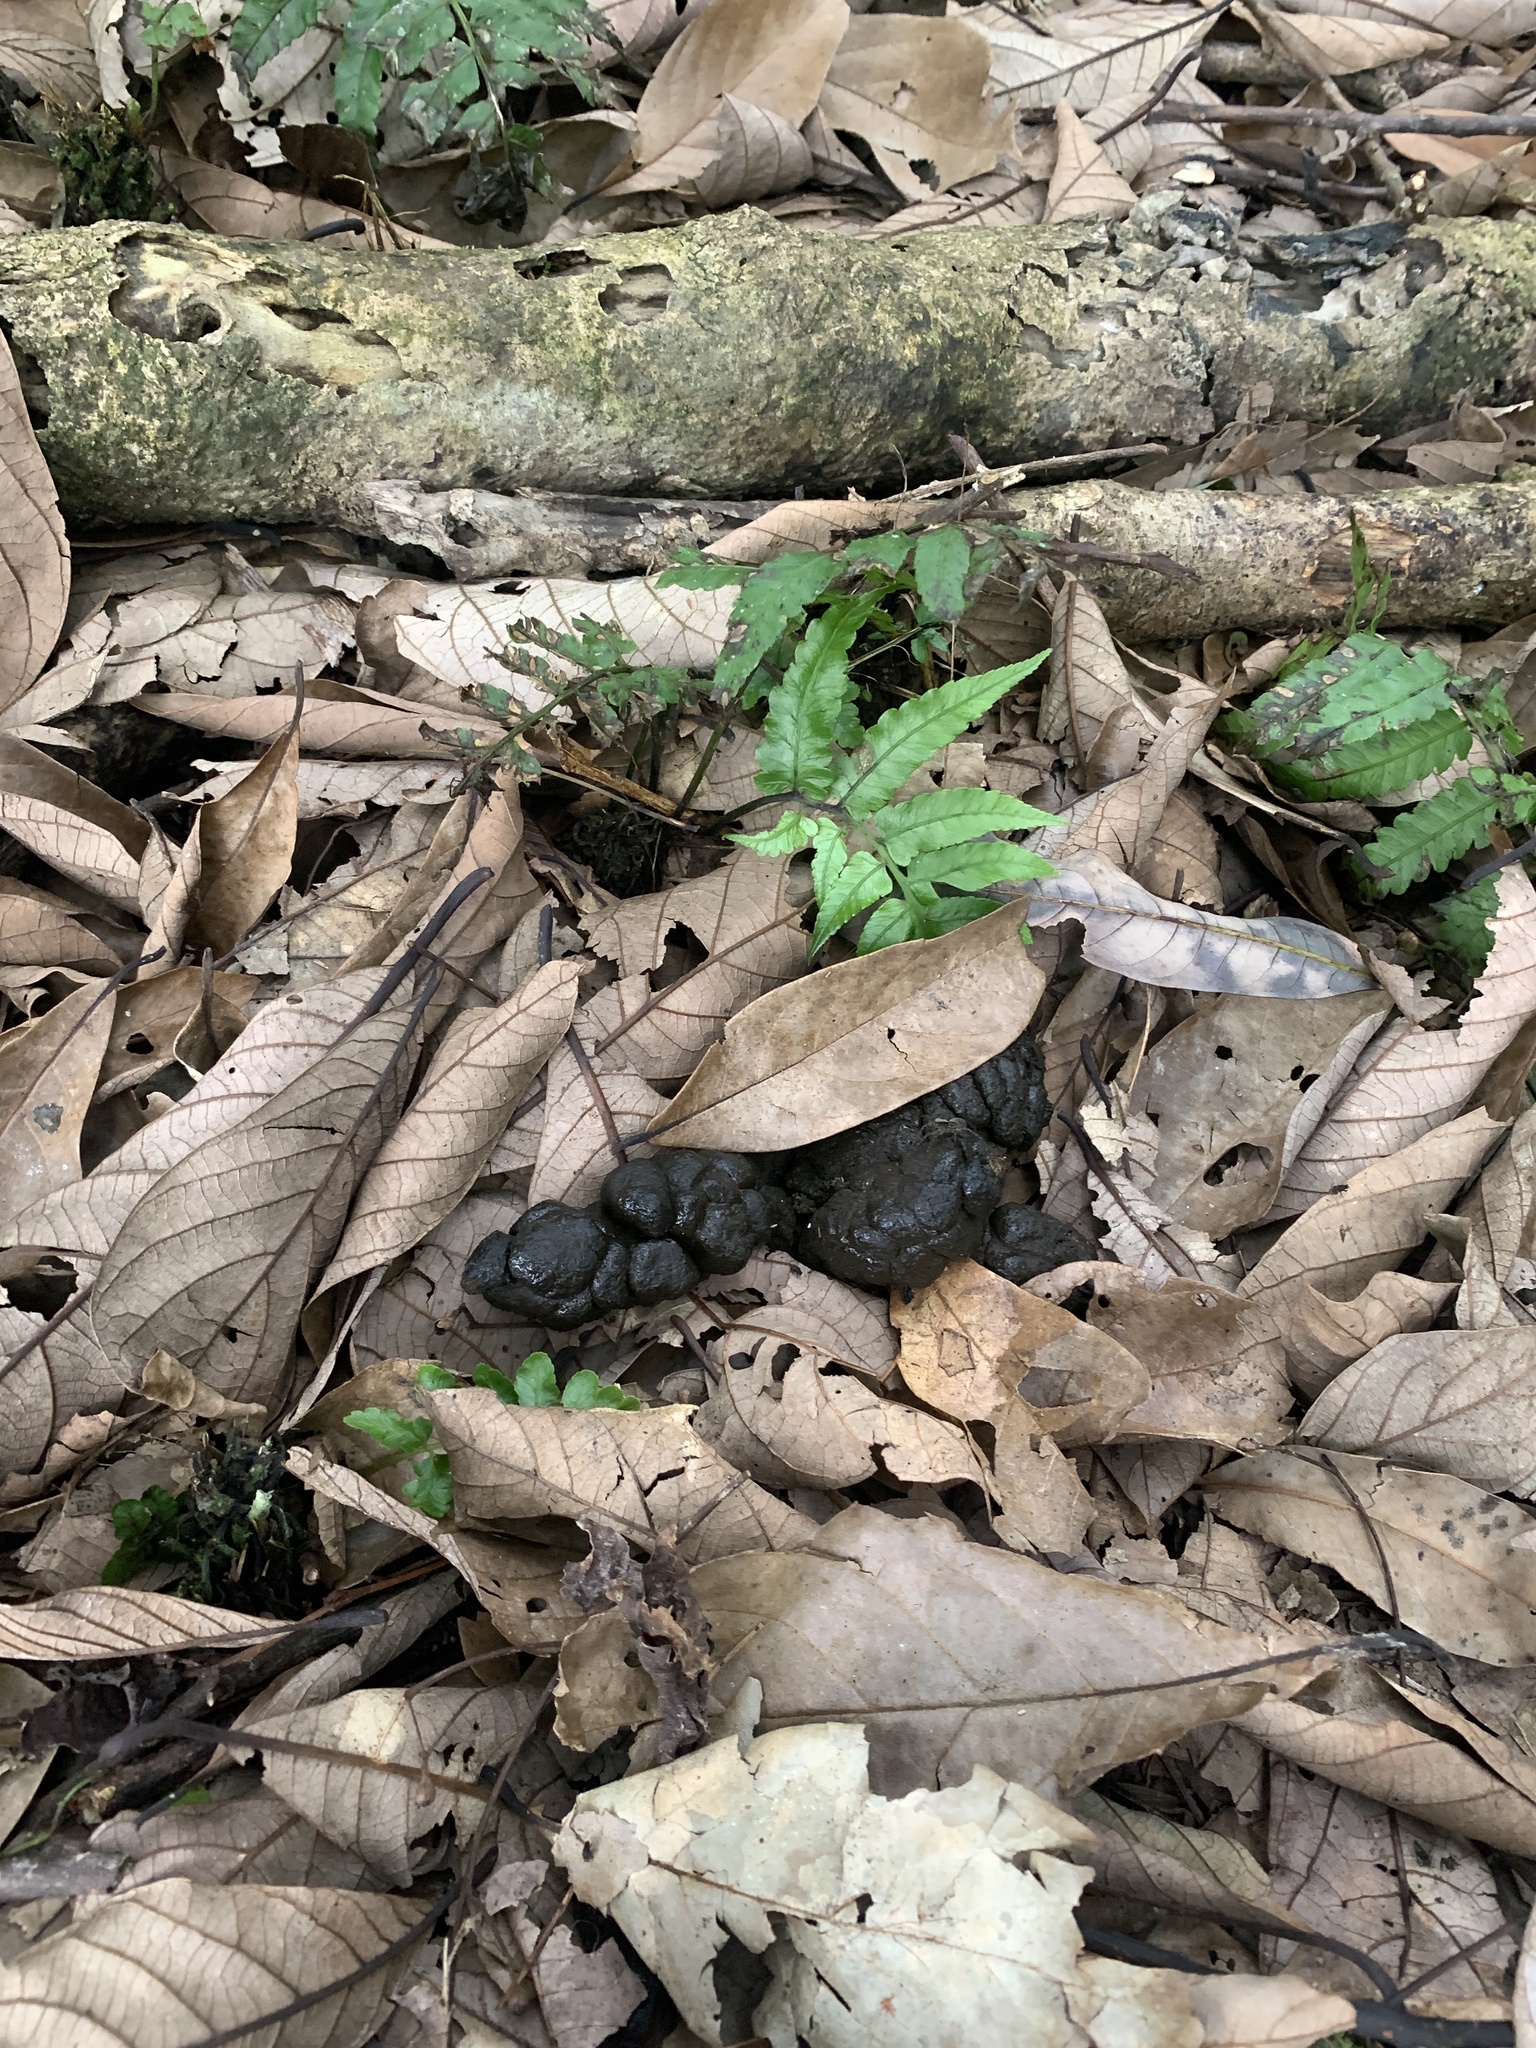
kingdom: Animalia
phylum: Chordata
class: Mammalia
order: Artiodactyla
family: Cervidae
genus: Muntiacus
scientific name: Muntiacus reevesi
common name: Reeves' muntjac
